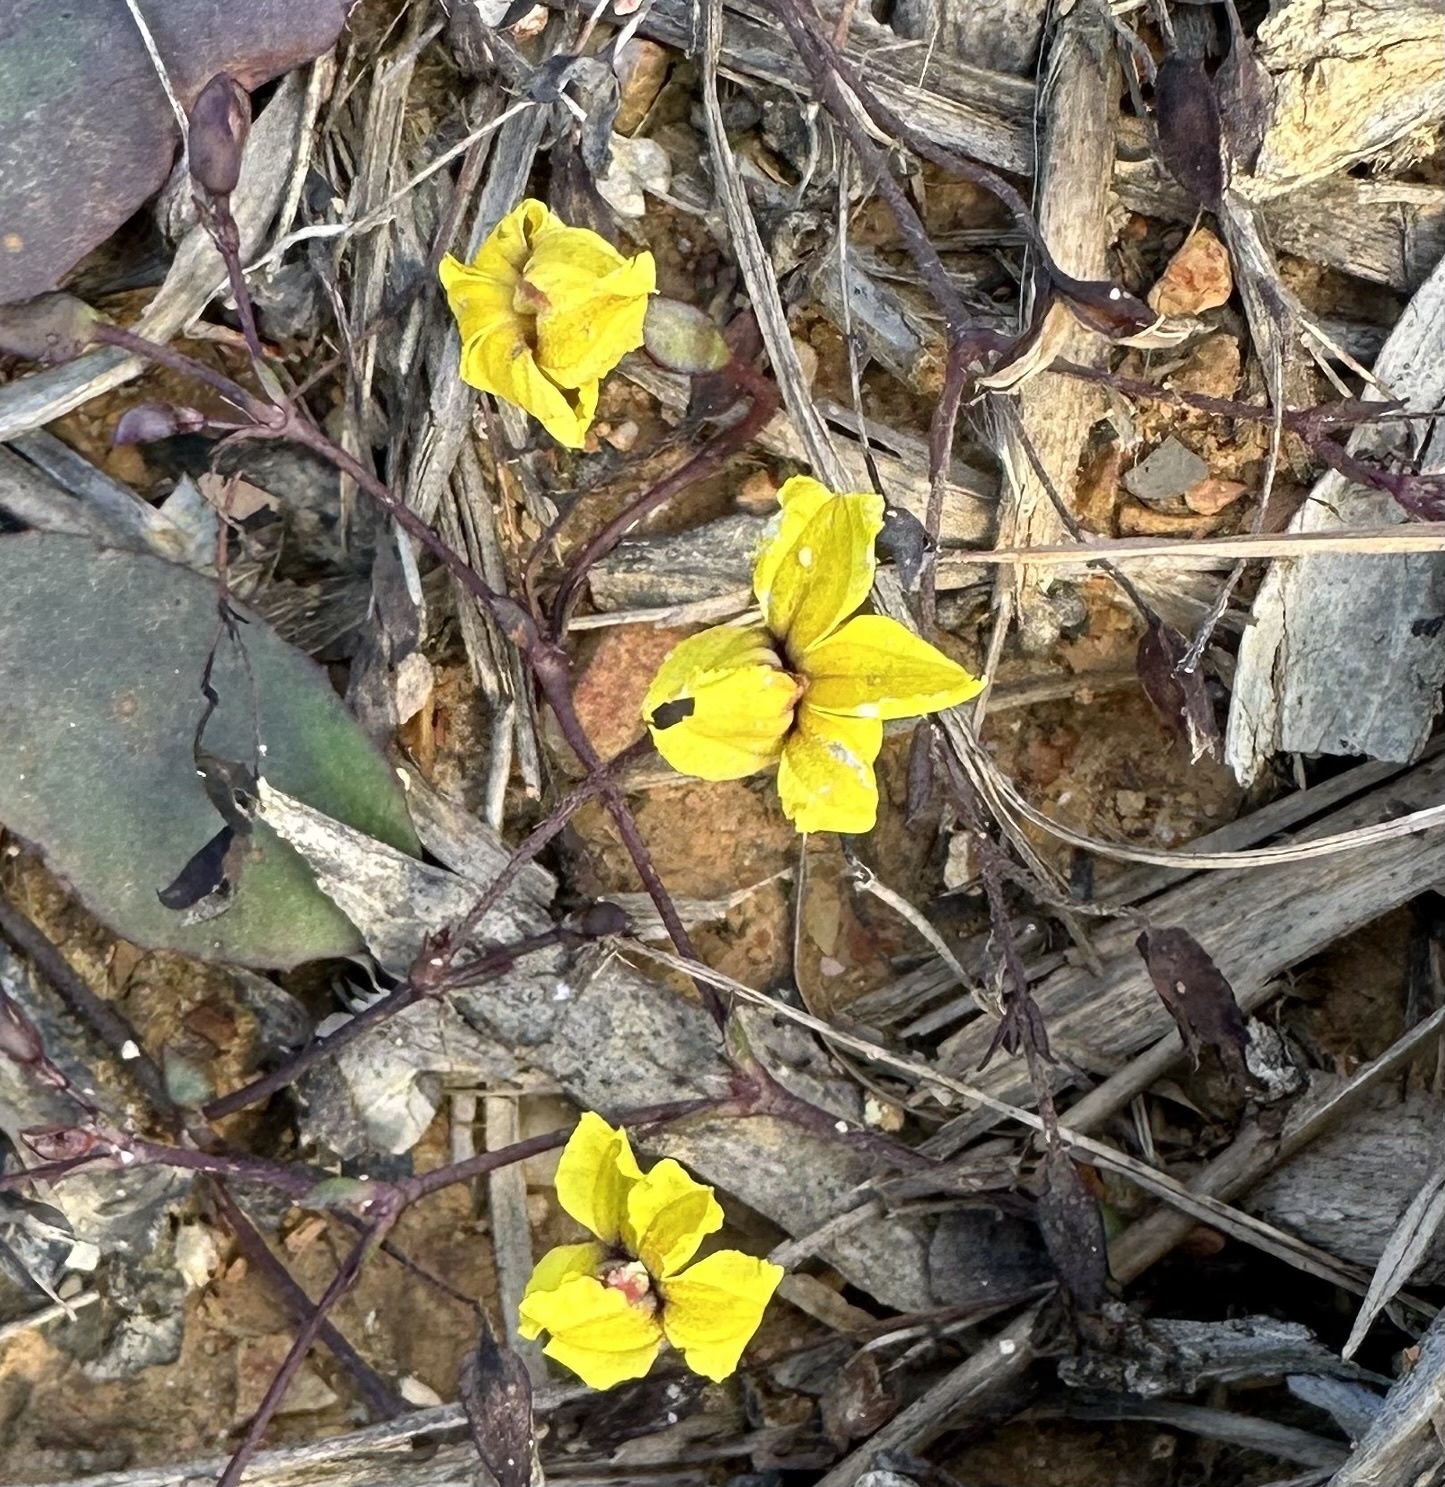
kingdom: Plantae
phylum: Tracheophyta
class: Magnoliopsida
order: Asterales
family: Goodeniaceae
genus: Goodenia
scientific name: Goodenia mystrophylla
